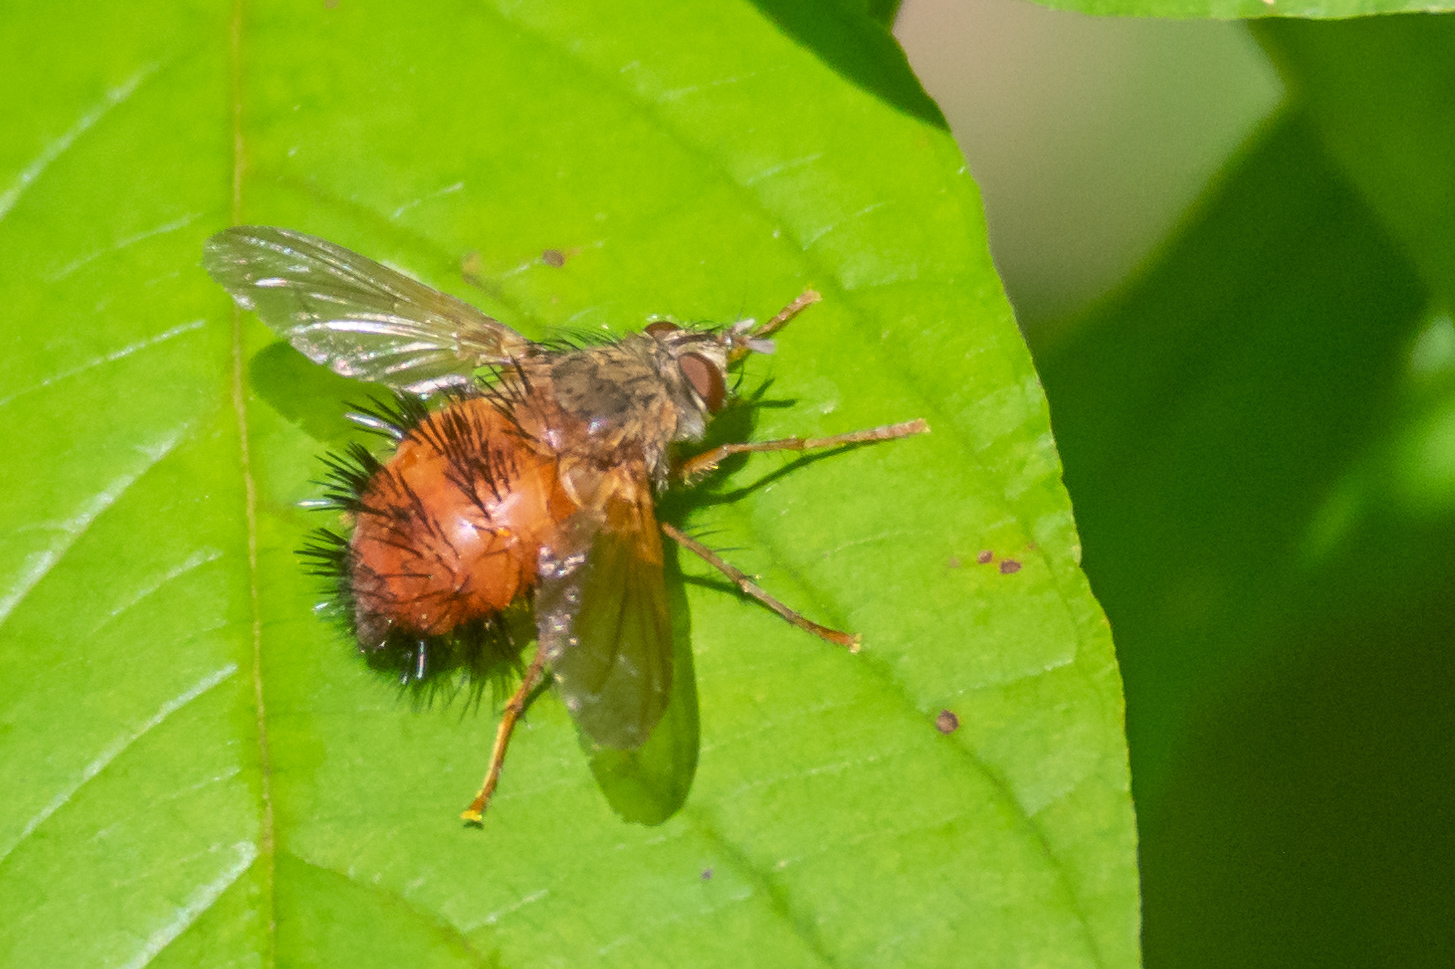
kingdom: Animalia
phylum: Arthropoda
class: Insecta
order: Diptera
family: Tachinidae
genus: Hystricia
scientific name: Hystricia abrupta
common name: Tomato bristle fly
